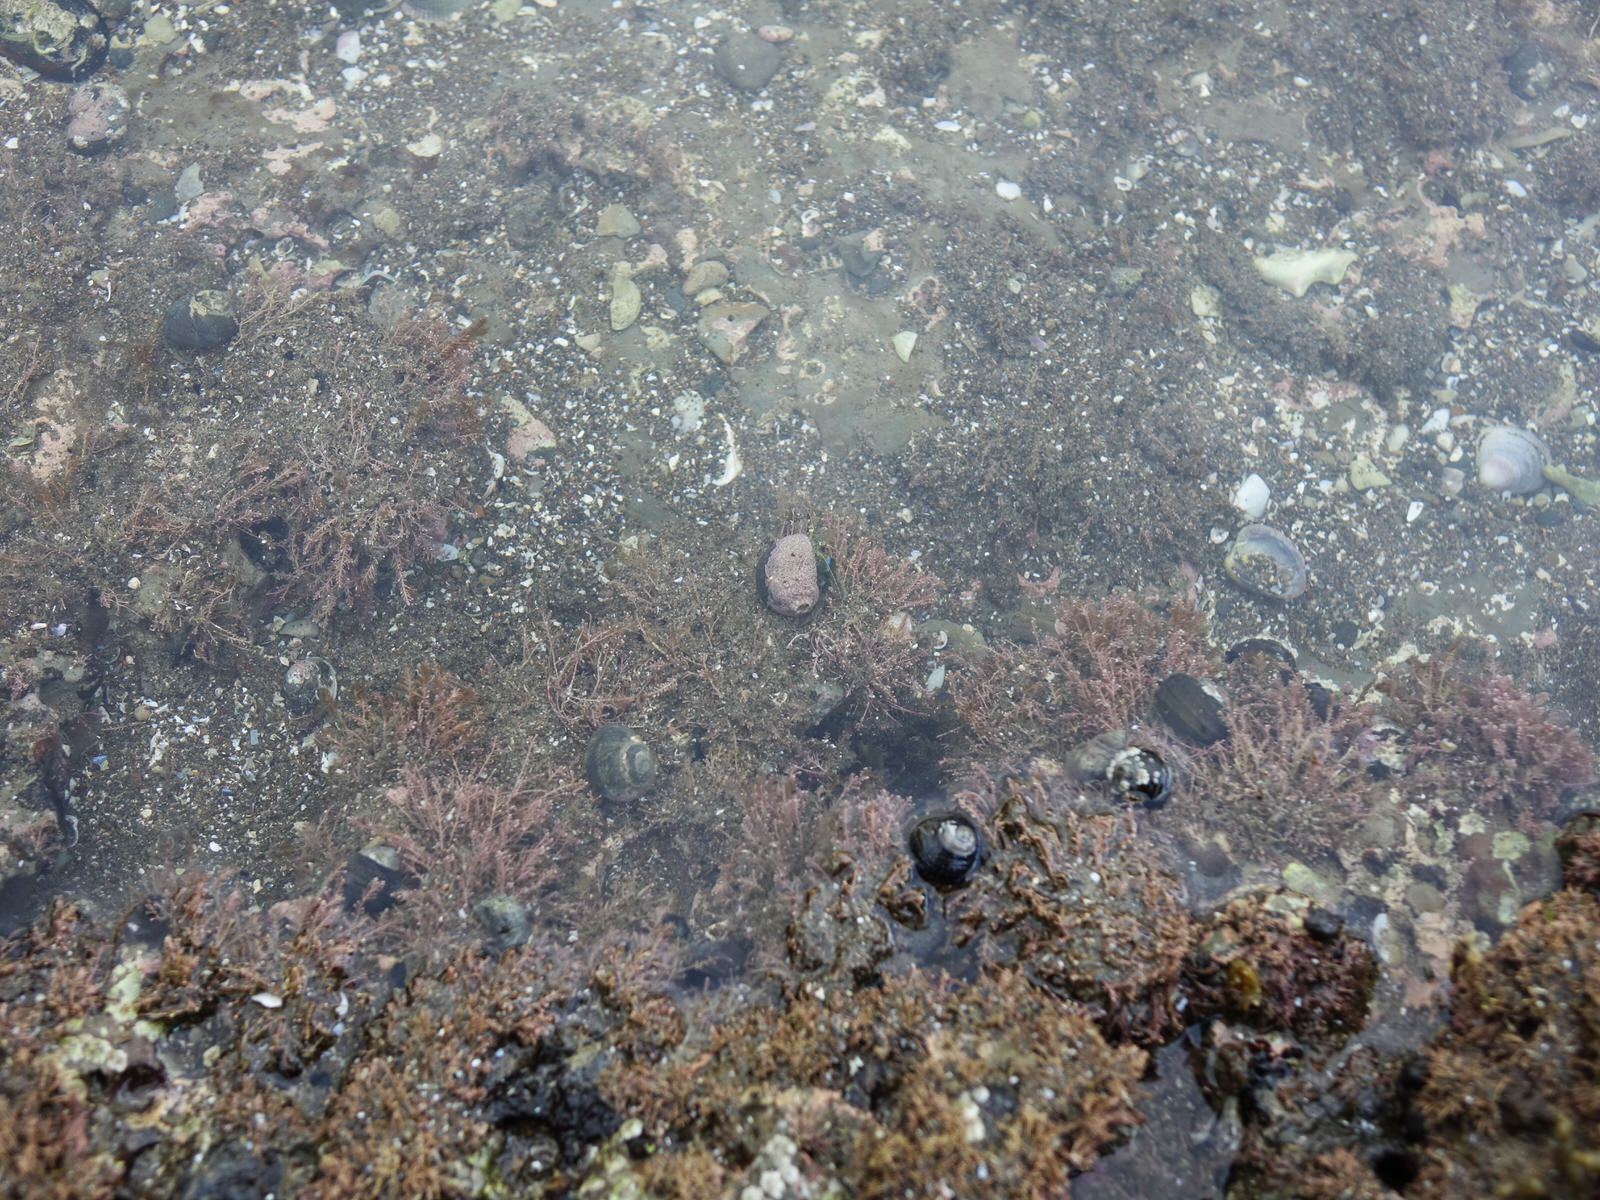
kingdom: Animalia
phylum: Arthropoda
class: Malacostraca
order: Decapoda
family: Paguridae
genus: Pagurus
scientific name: Pagurus novizealandiae
